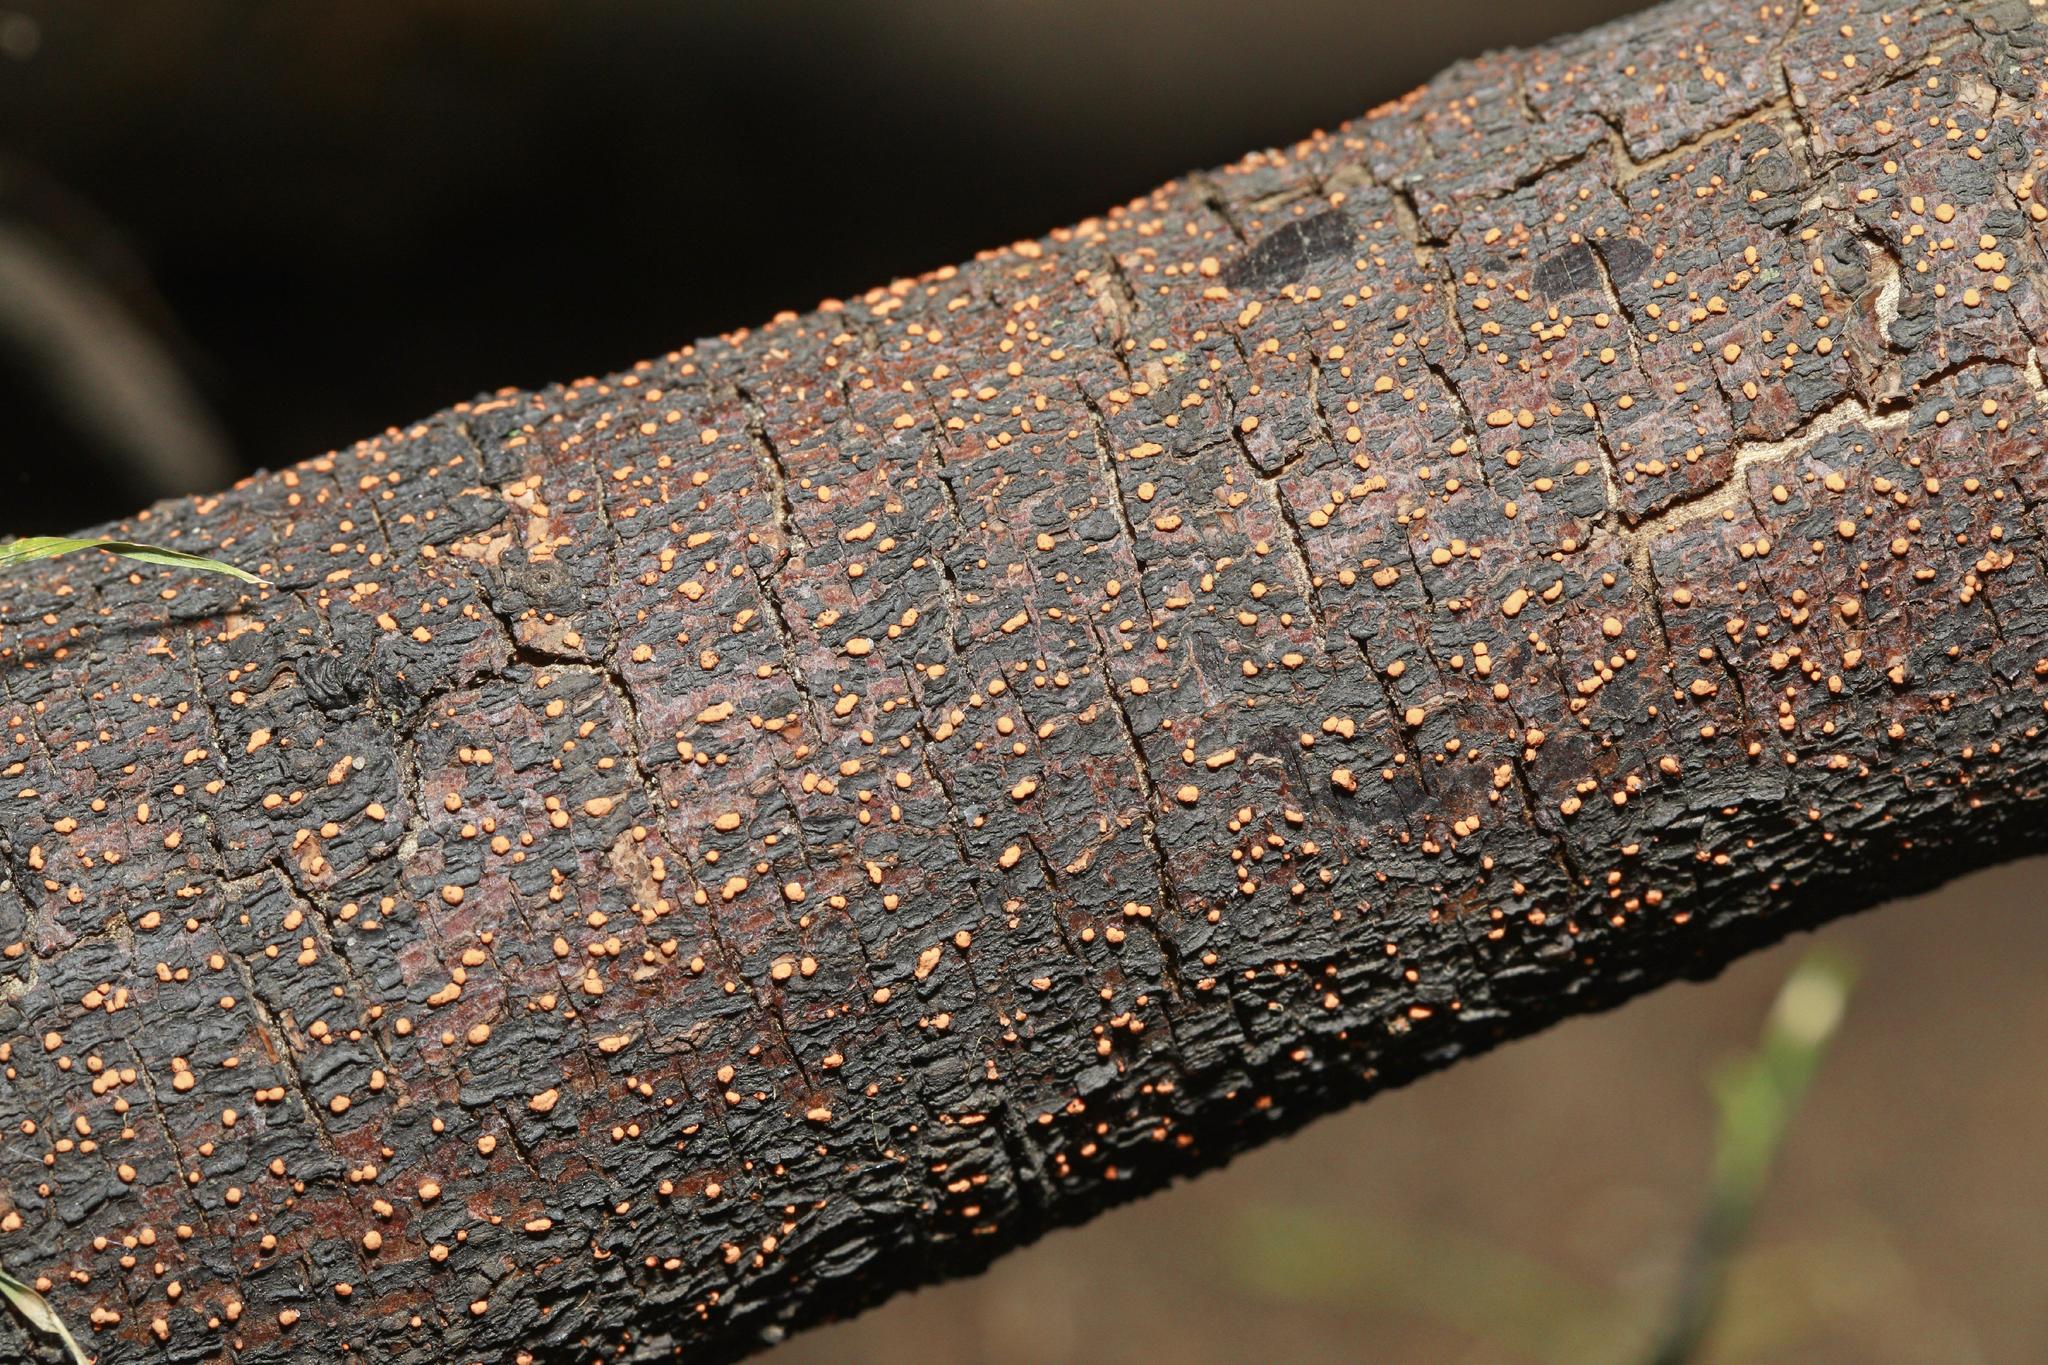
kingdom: Fungi
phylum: Ascomycota
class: Sordariomycetes
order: Hypocreales
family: Nectriaceae
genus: Nectria
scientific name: Nectria cinnabarina
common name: Coral spot
